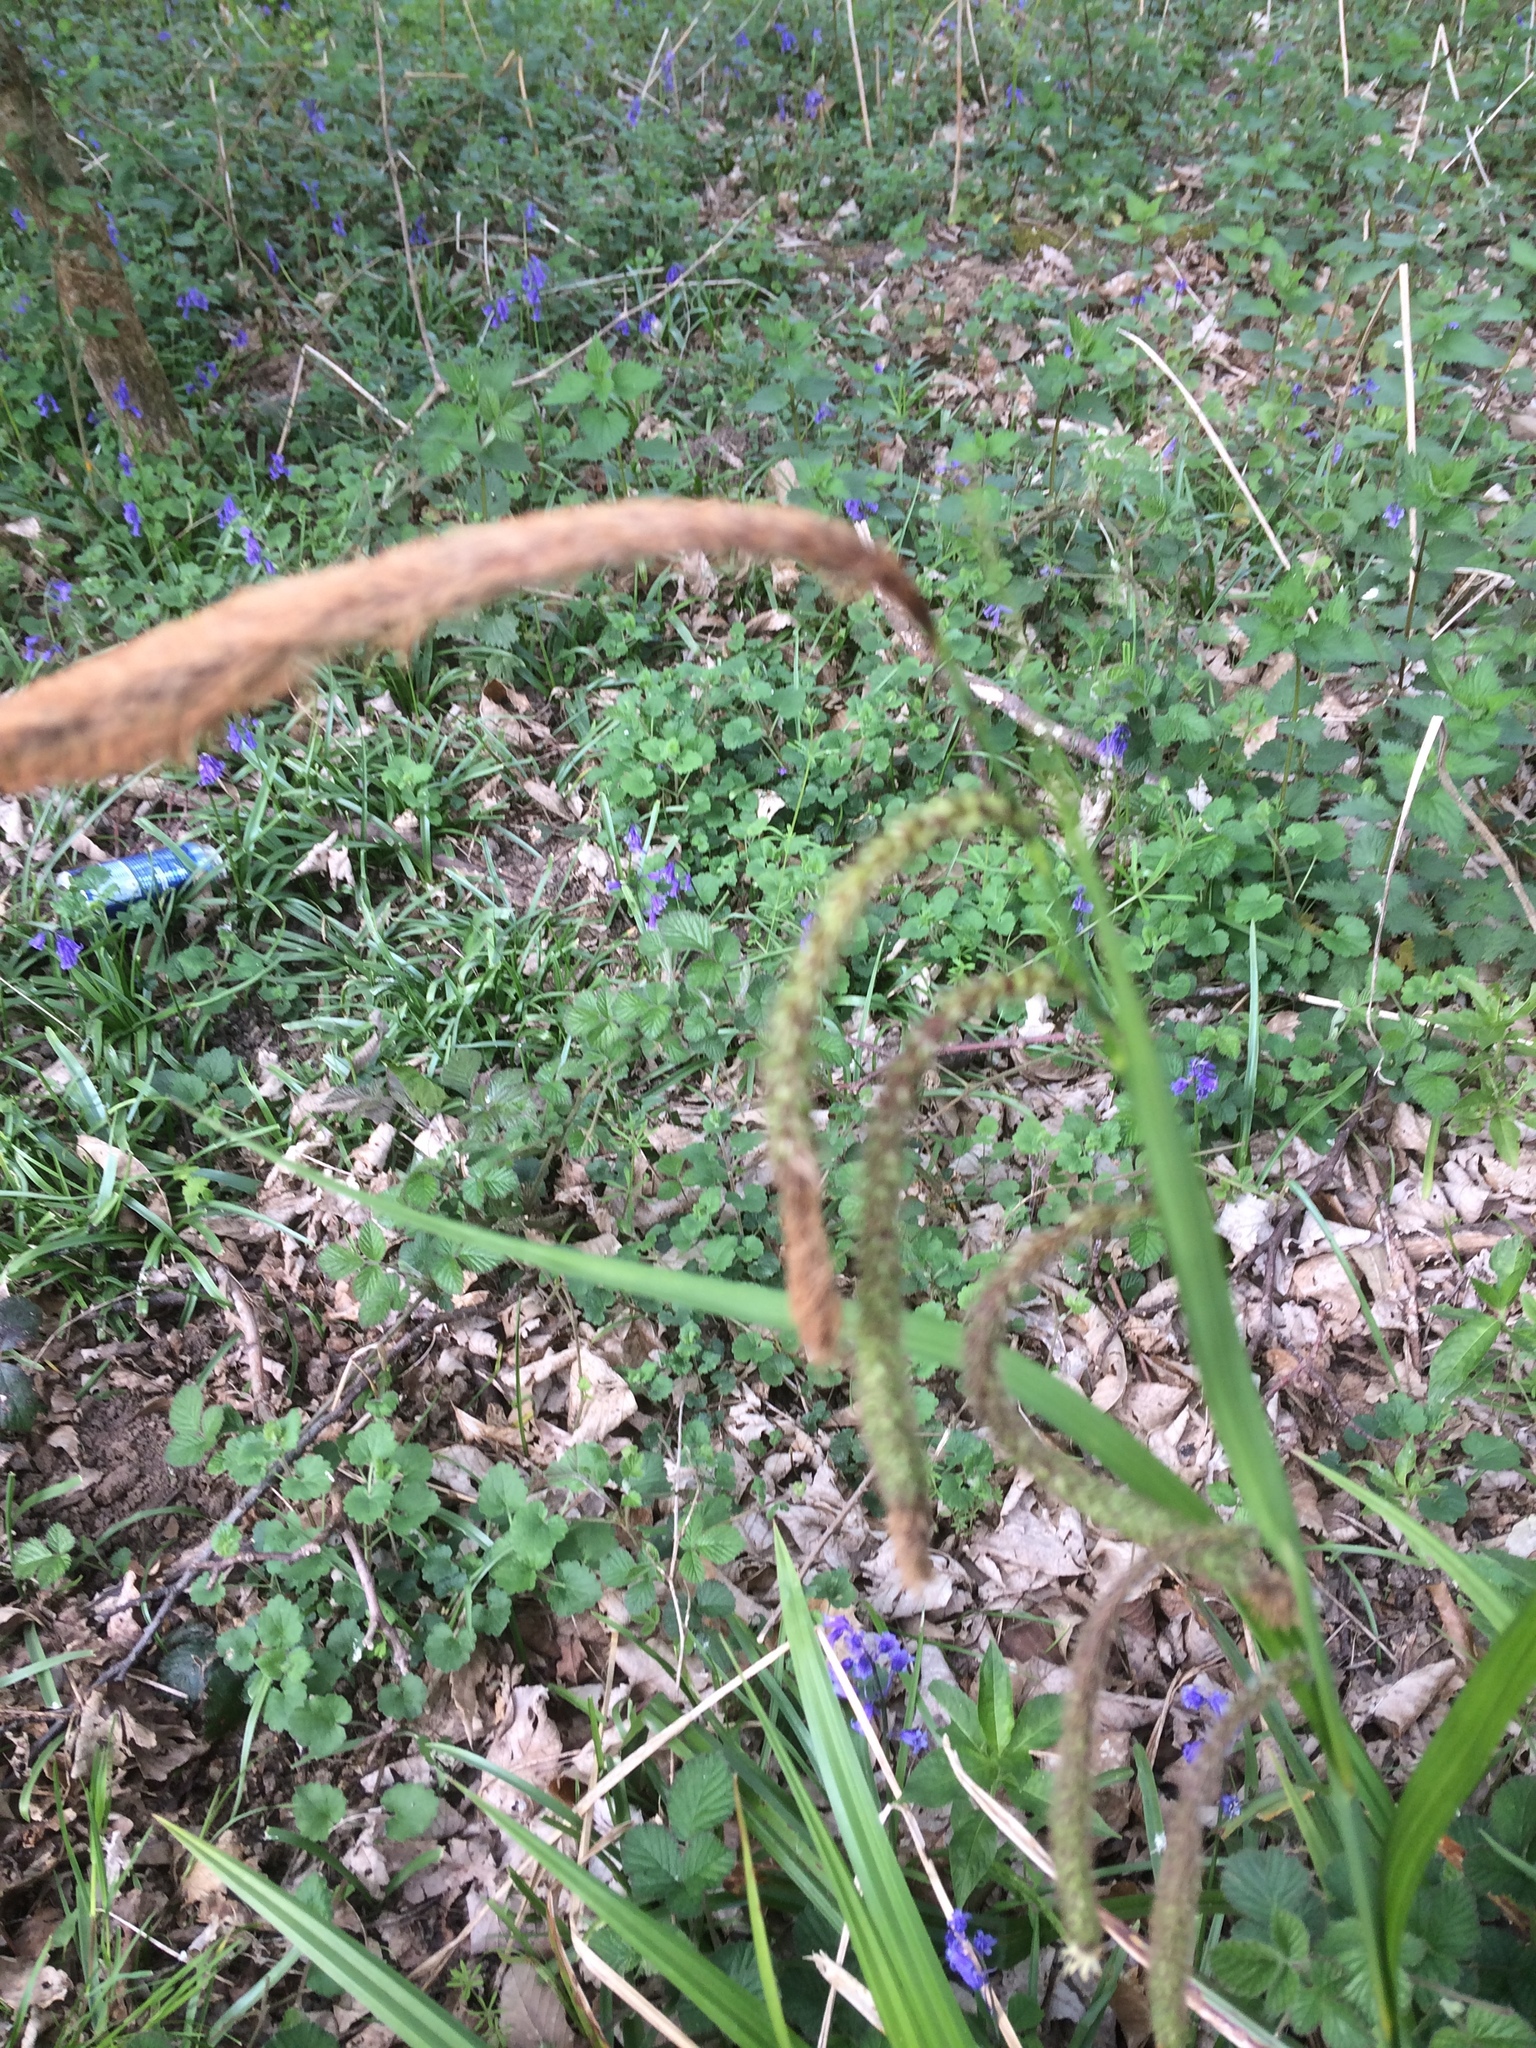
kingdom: Plantae
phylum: Tracheophyta
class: Liliopsida
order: Poales
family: Cyperaceae
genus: Carex
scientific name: Carex pendula
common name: Pendulous sedge
